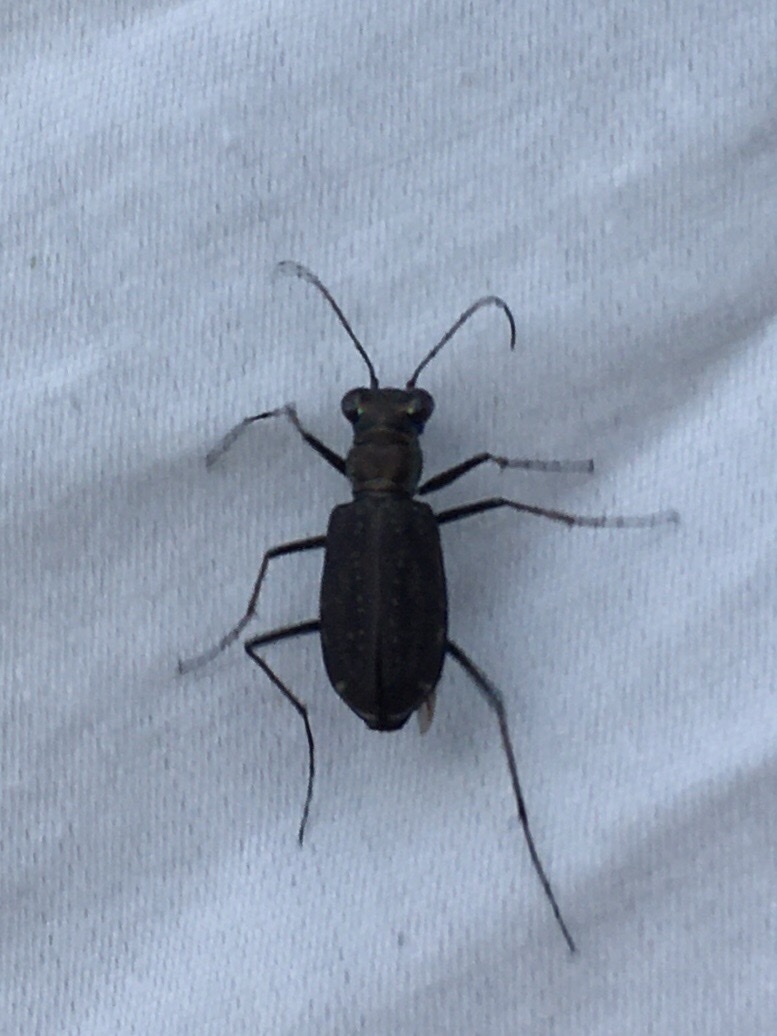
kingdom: Animalia
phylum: Arthropoda
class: Insecta
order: Coleoptera
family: Carabidae
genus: Cicindela
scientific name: Cicindela punctulata
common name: Punctured tiger beetle
